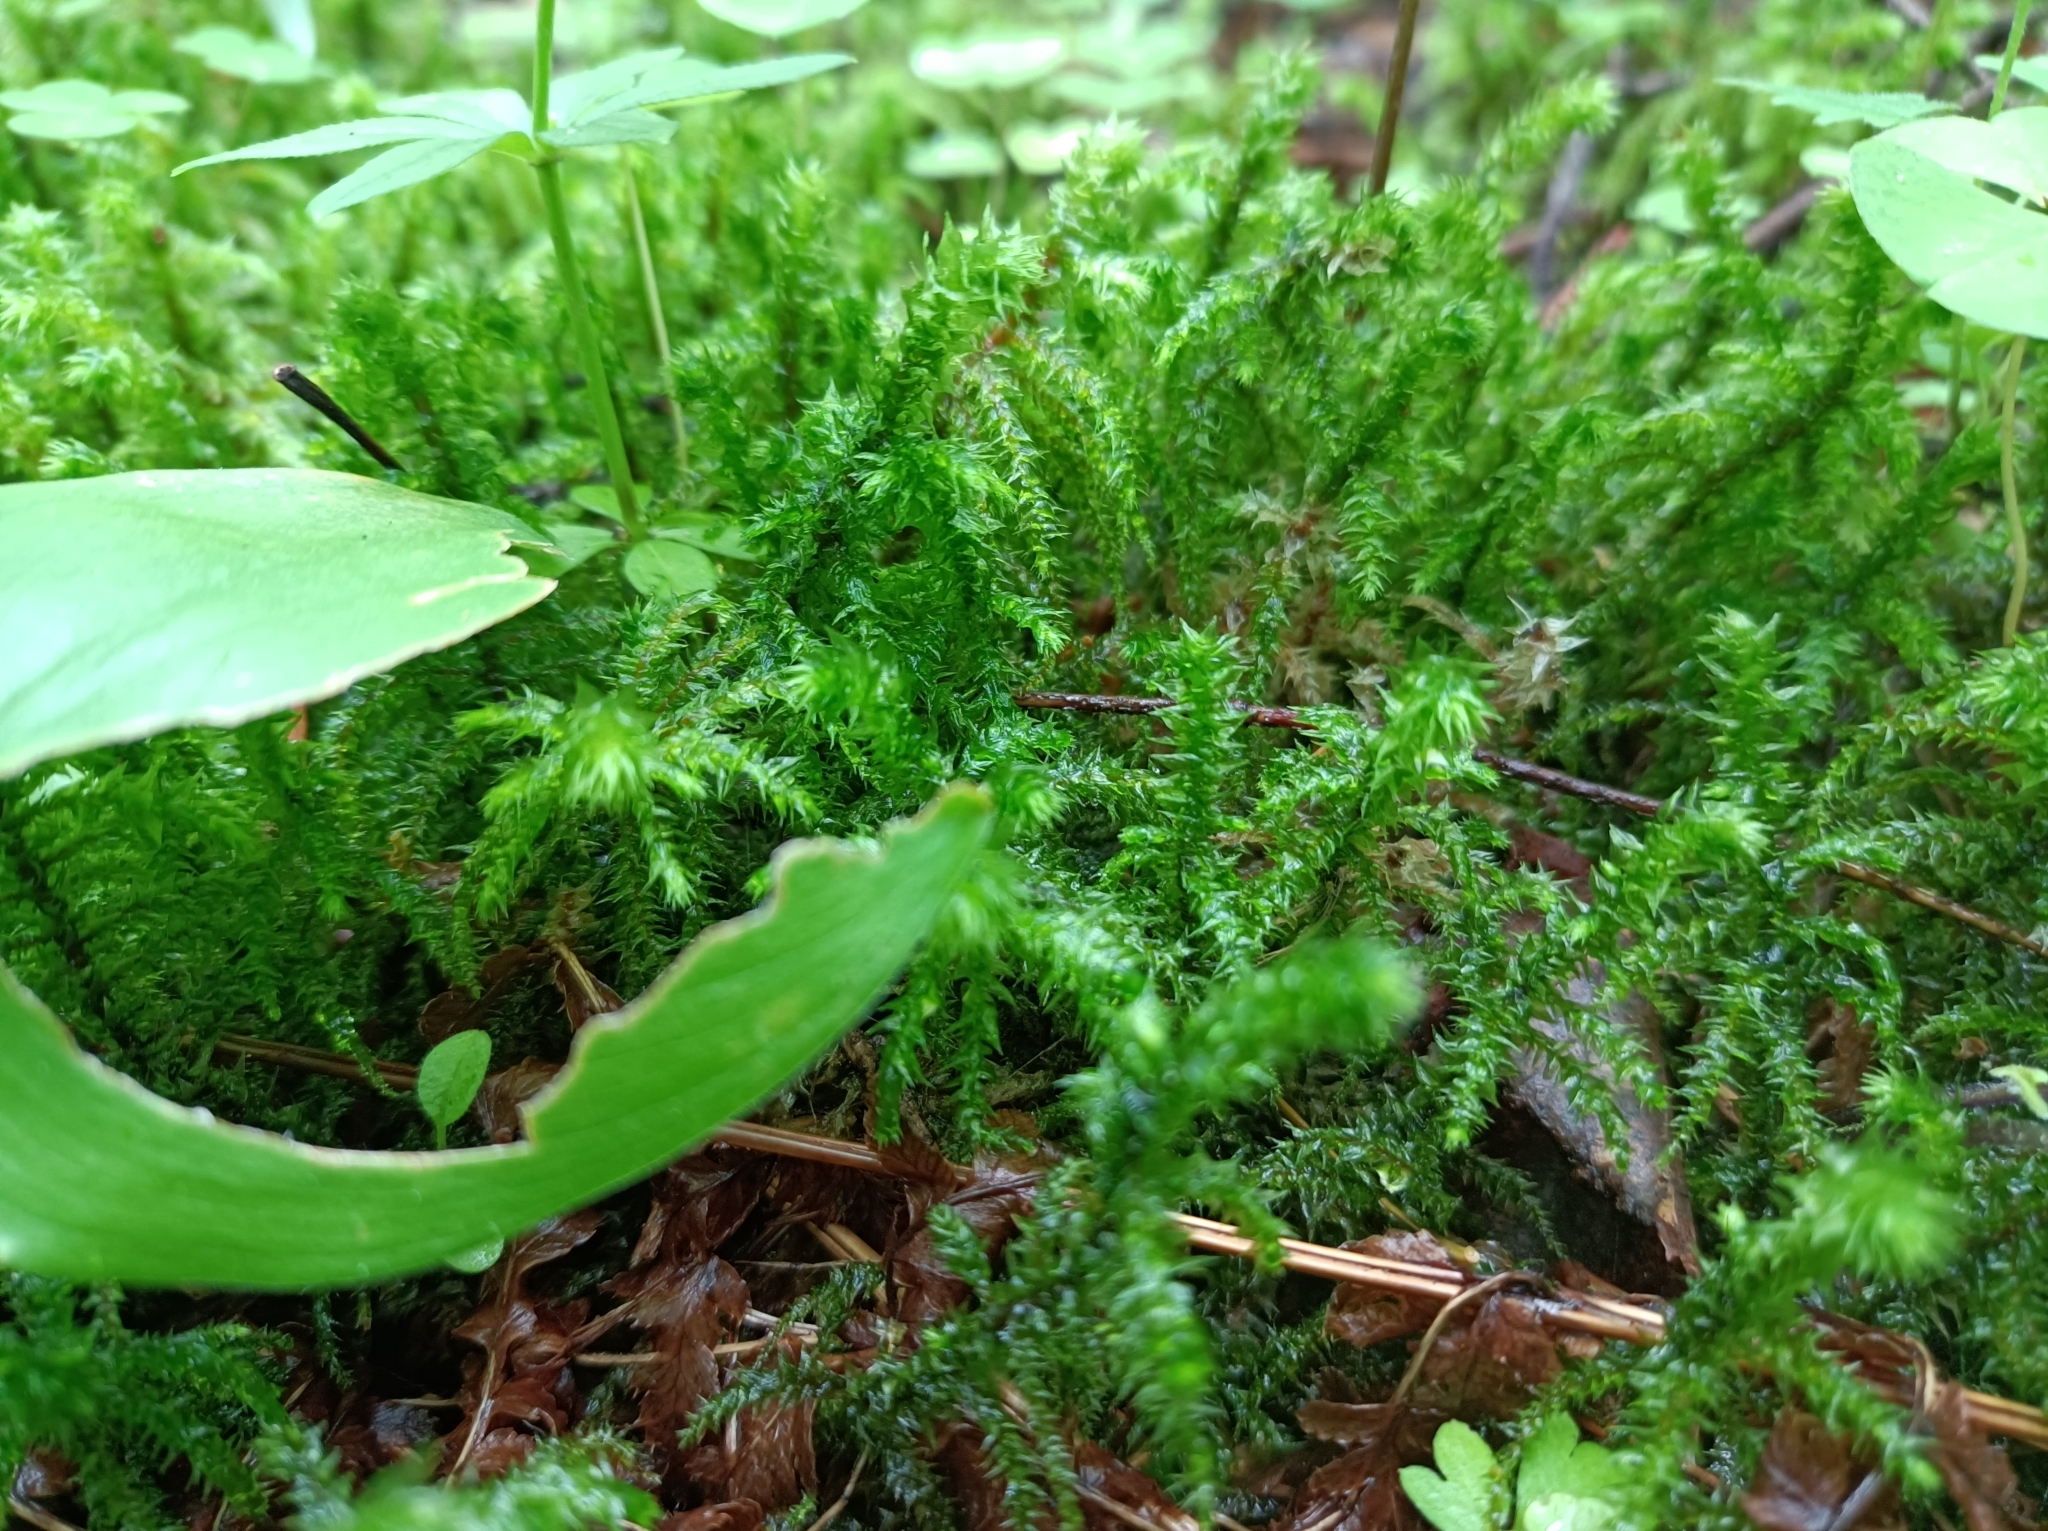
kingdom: Plantae
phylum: Bryophyta
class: Bryopsida
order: Hypnales
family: Hylocomiaceae
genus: Hylocomiadelphus
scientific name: Hylocomiadelphus triquetrus
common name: Rough goose neck moss
